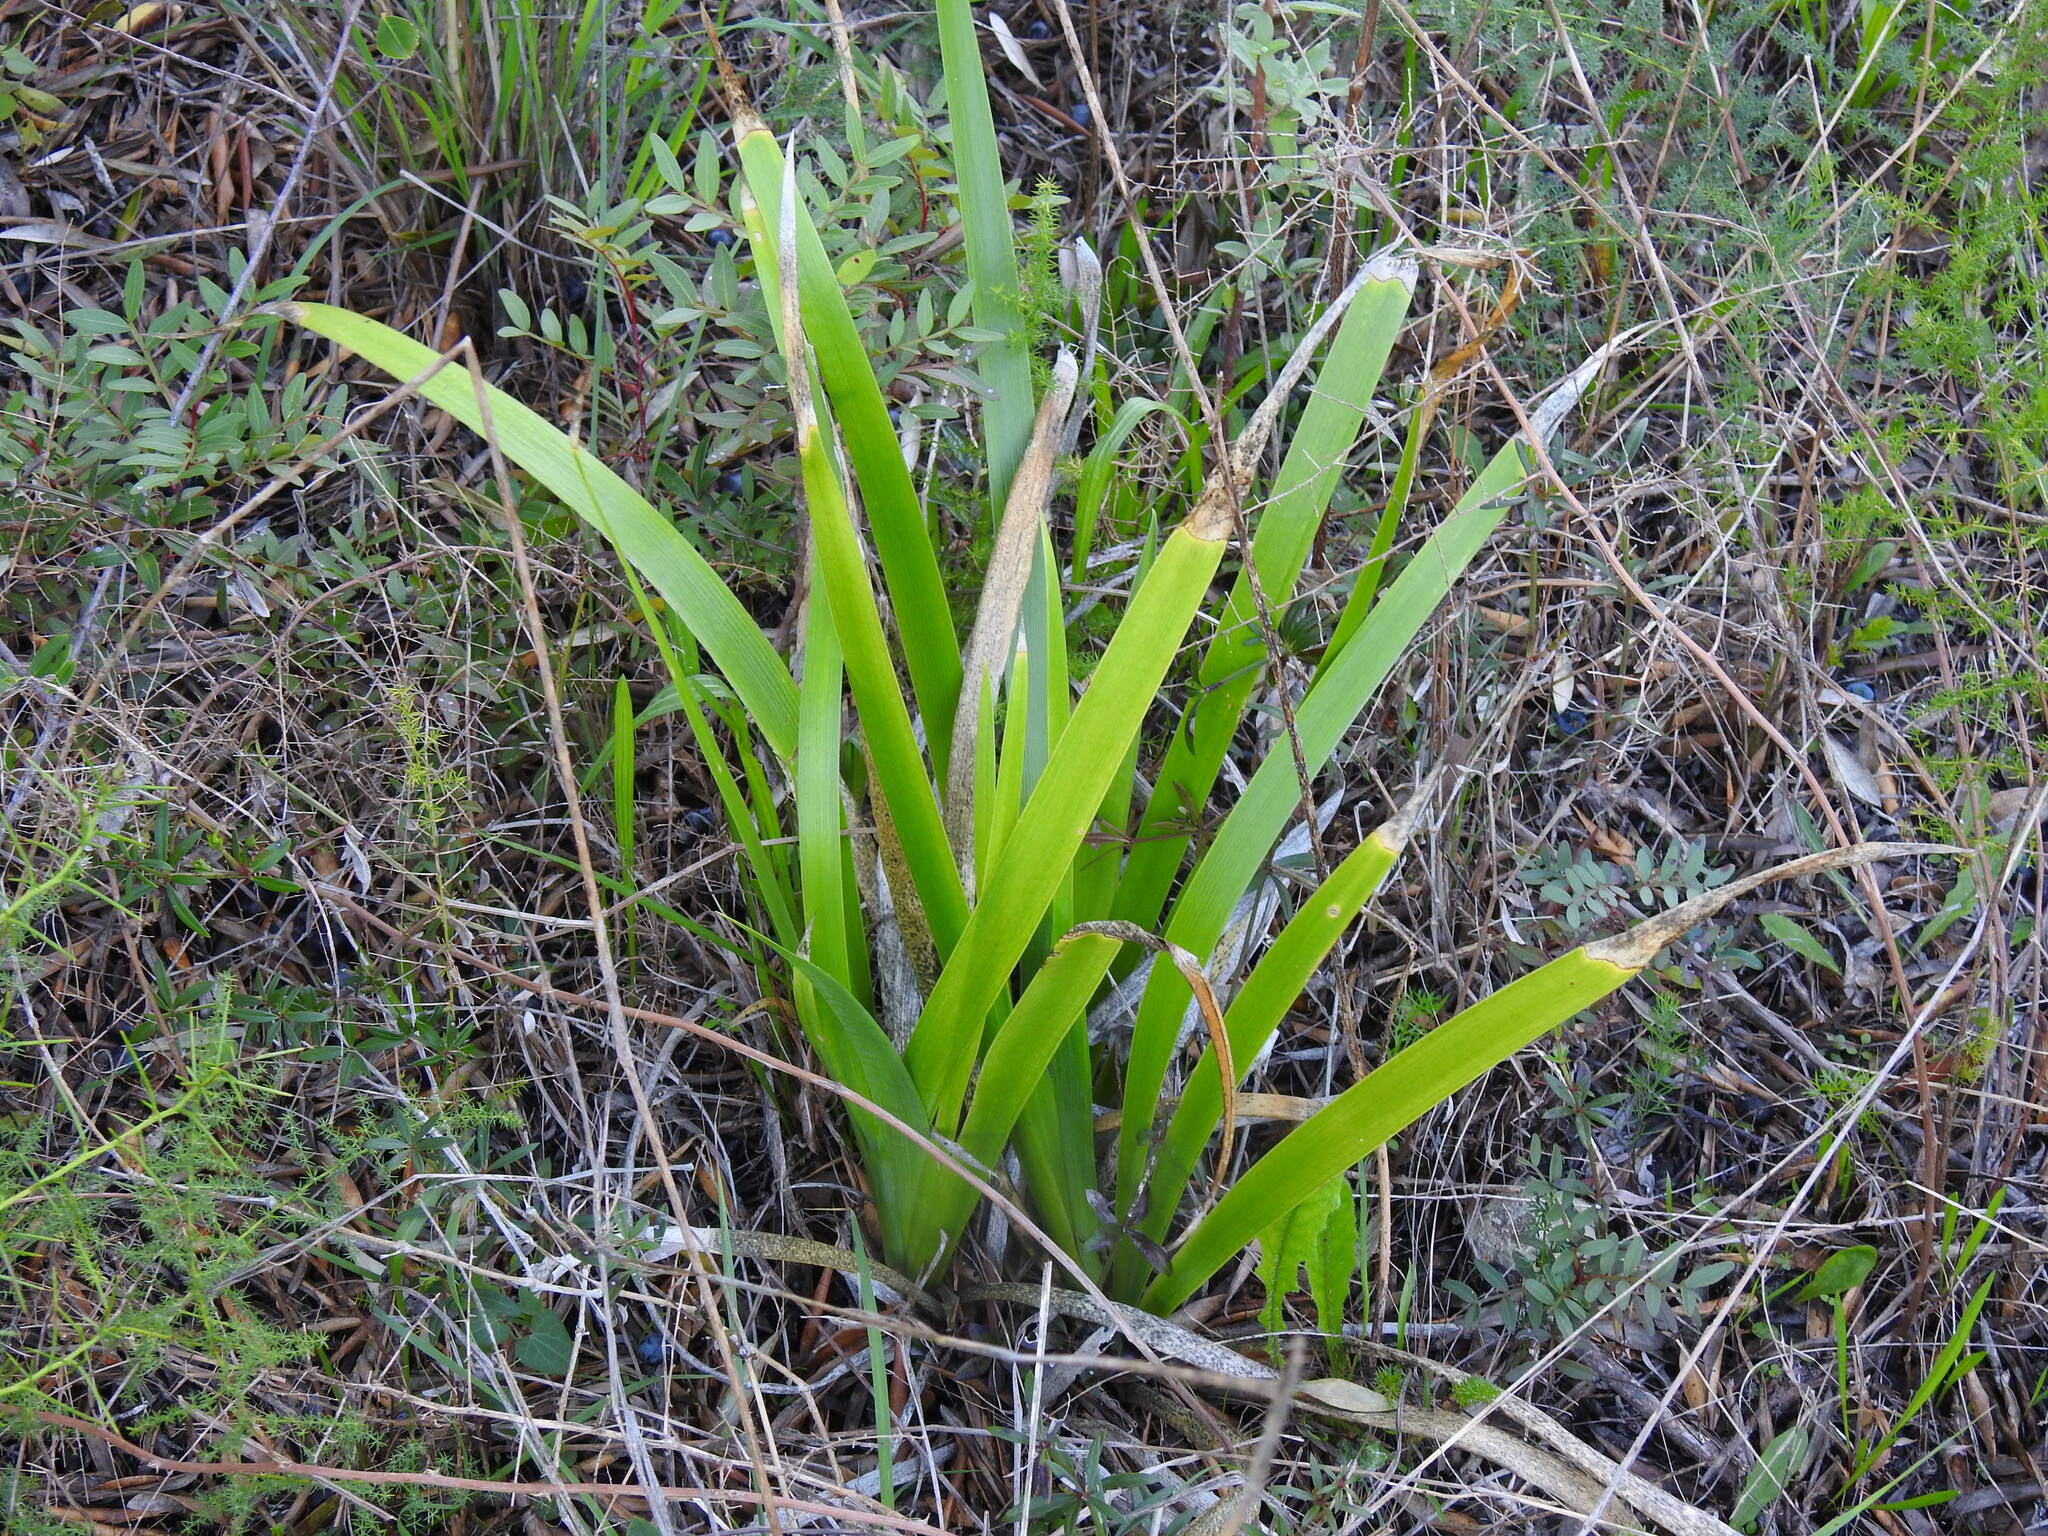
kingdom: Plantae
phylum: Tracheophyta
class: Liliopsida
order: Asparagales
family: Iridaceae
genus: Iris
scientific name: Iris foetidissima
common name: Stinking iris
